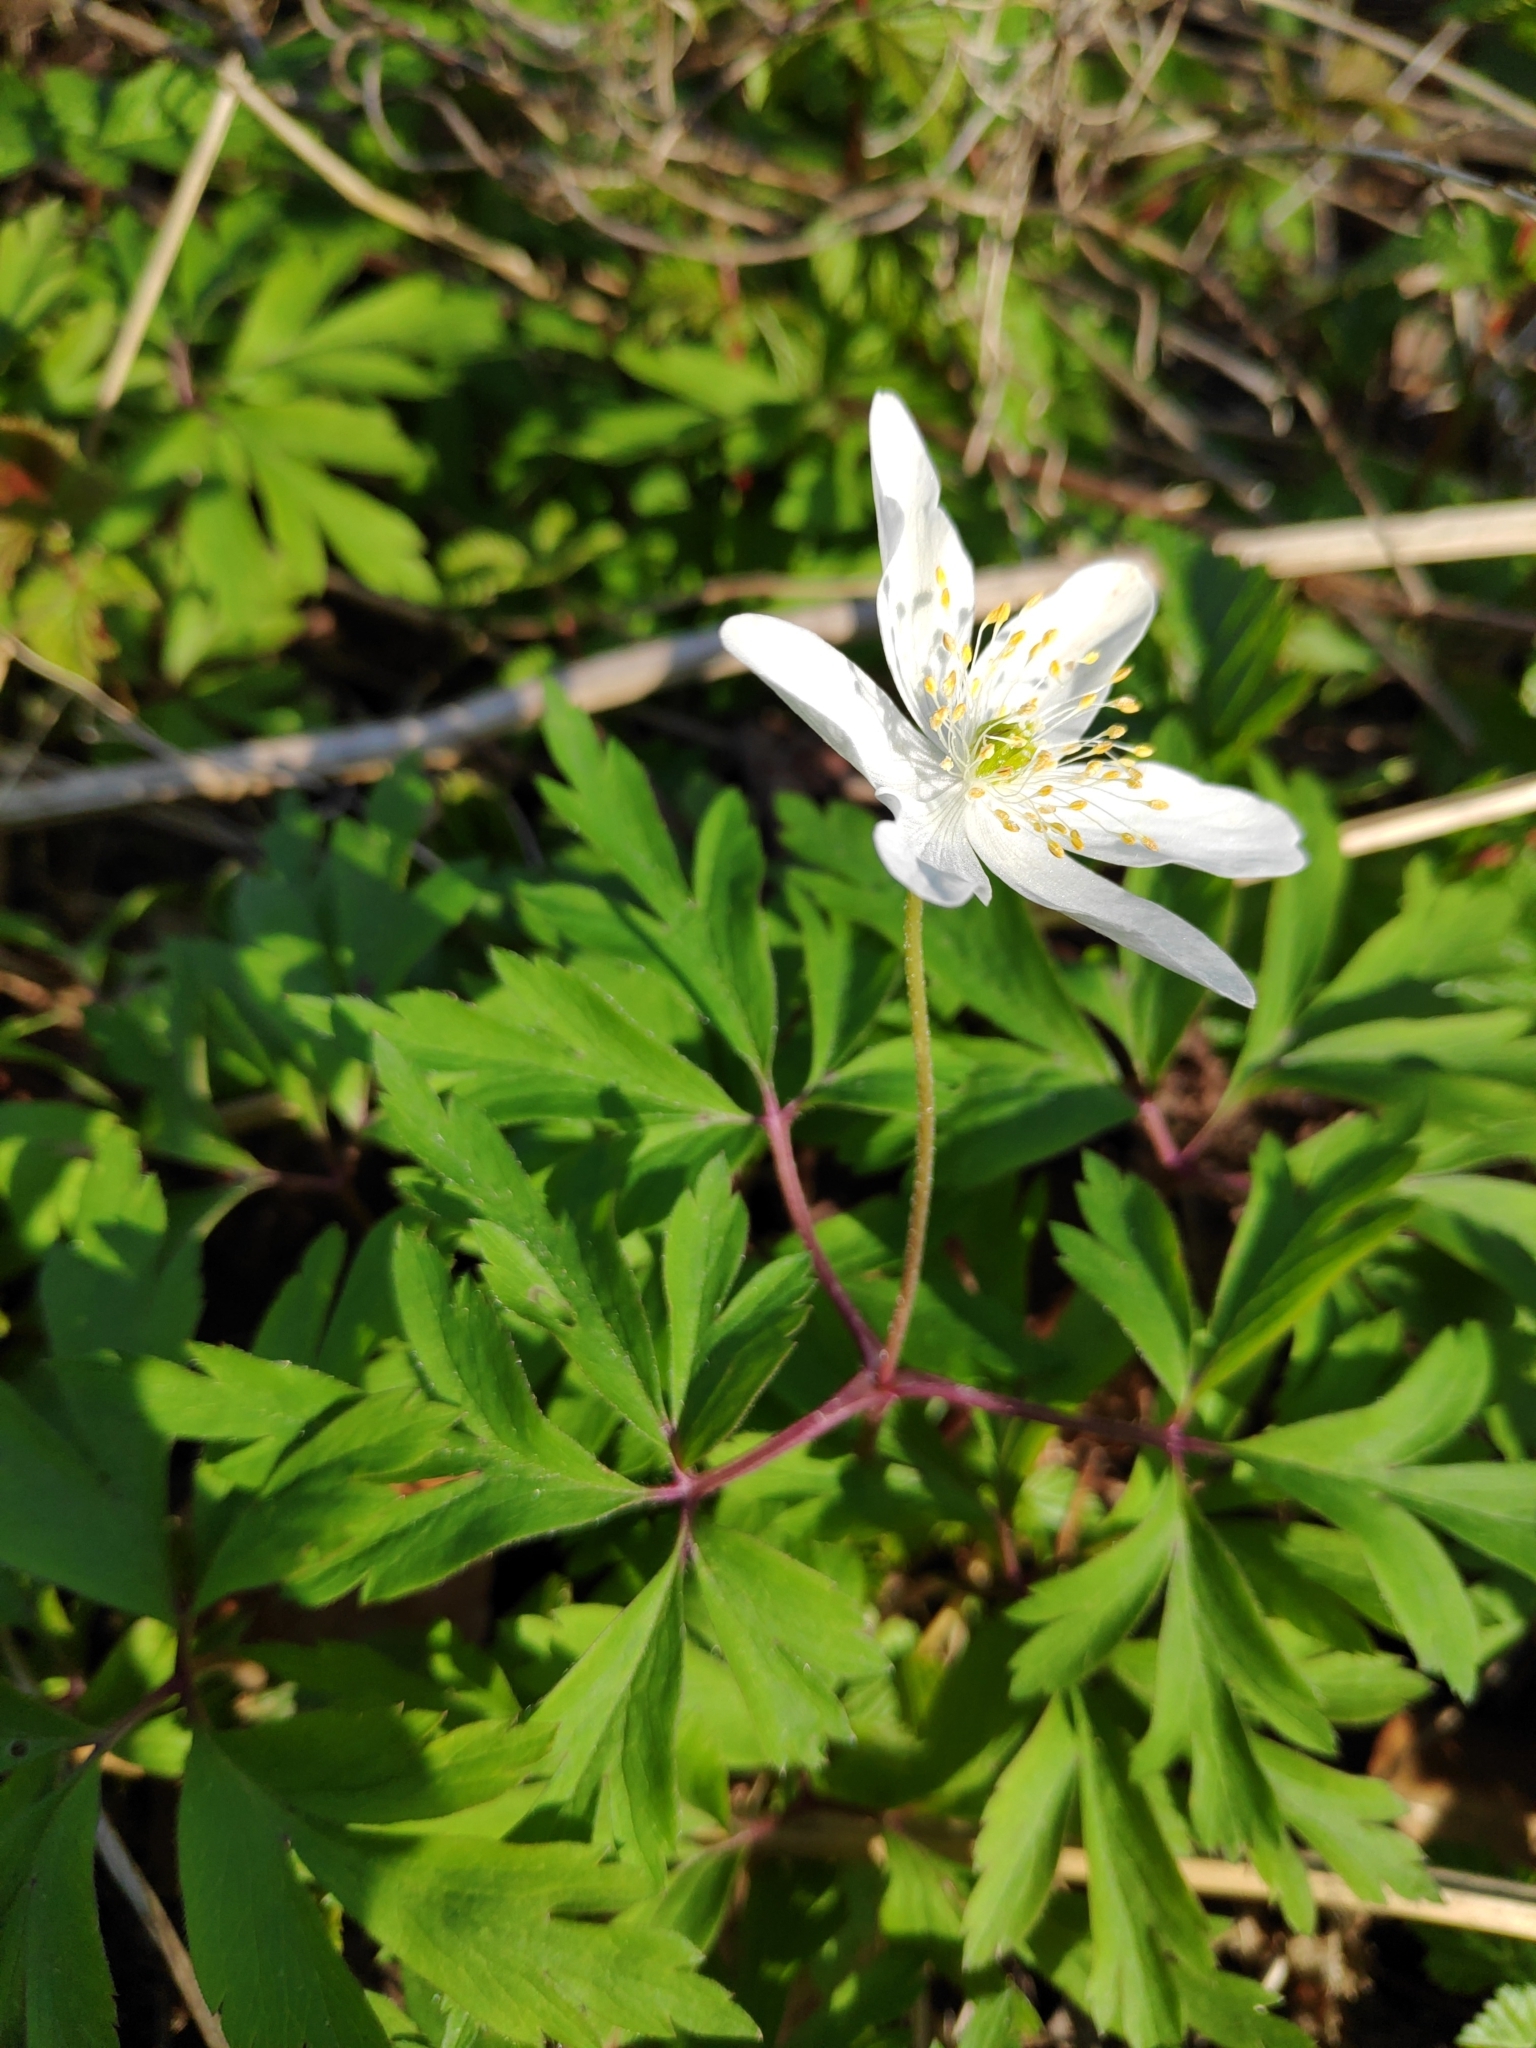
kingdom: Plantae
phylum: Tracheophyta
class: Magnoliopsida
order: Ranunculales
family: Ranunculaceae
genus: Anemone
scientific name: Anemone nemorosa
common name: Wood anemone
